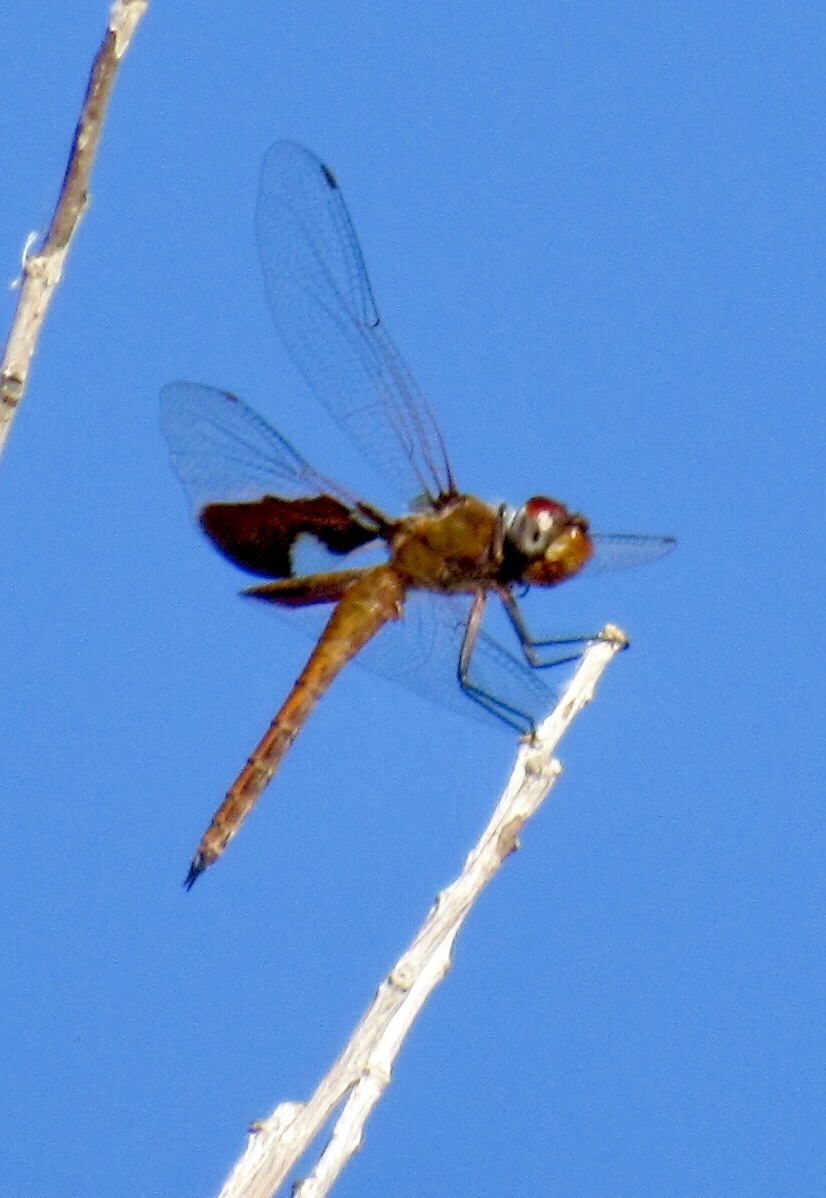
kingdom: Animalia
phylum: Arthropoda
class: Insecta
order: Odonata
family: Libellulidae
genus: Tramea
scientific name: Tramea onusta
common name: Red saddlebags
